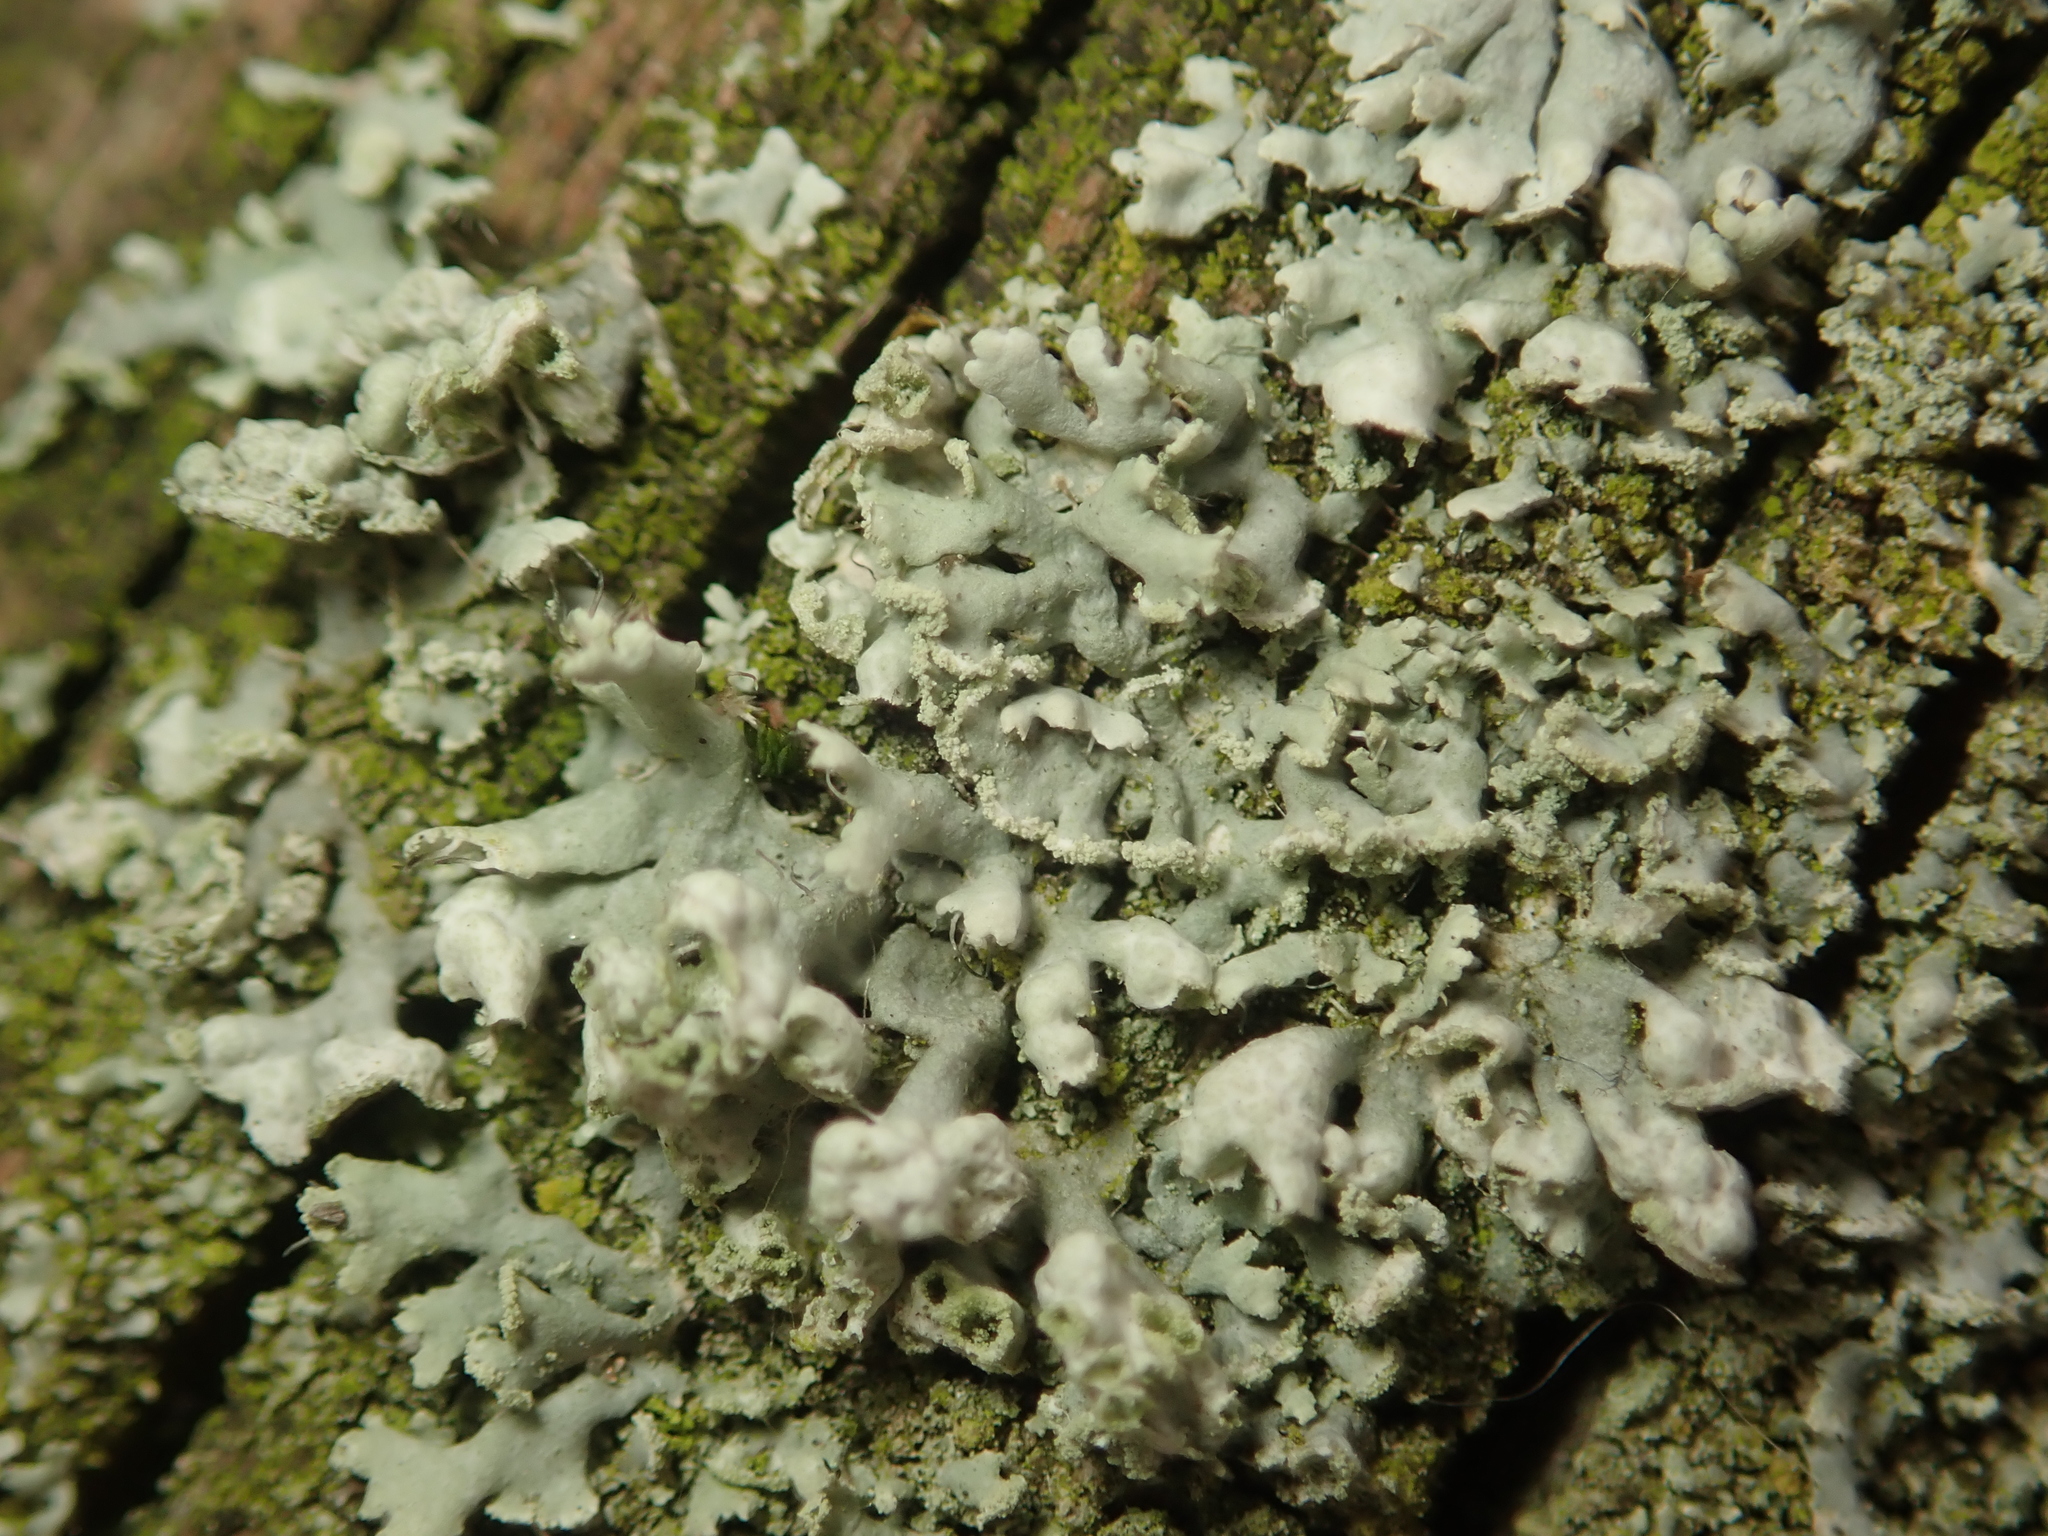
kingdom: Fungi
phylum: Ascomycota
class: Lecanoromycetes
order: Caliciales
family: Physciaceae
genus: Physcia
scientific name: Physcia adscendens
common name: Hooded rosette lichen
